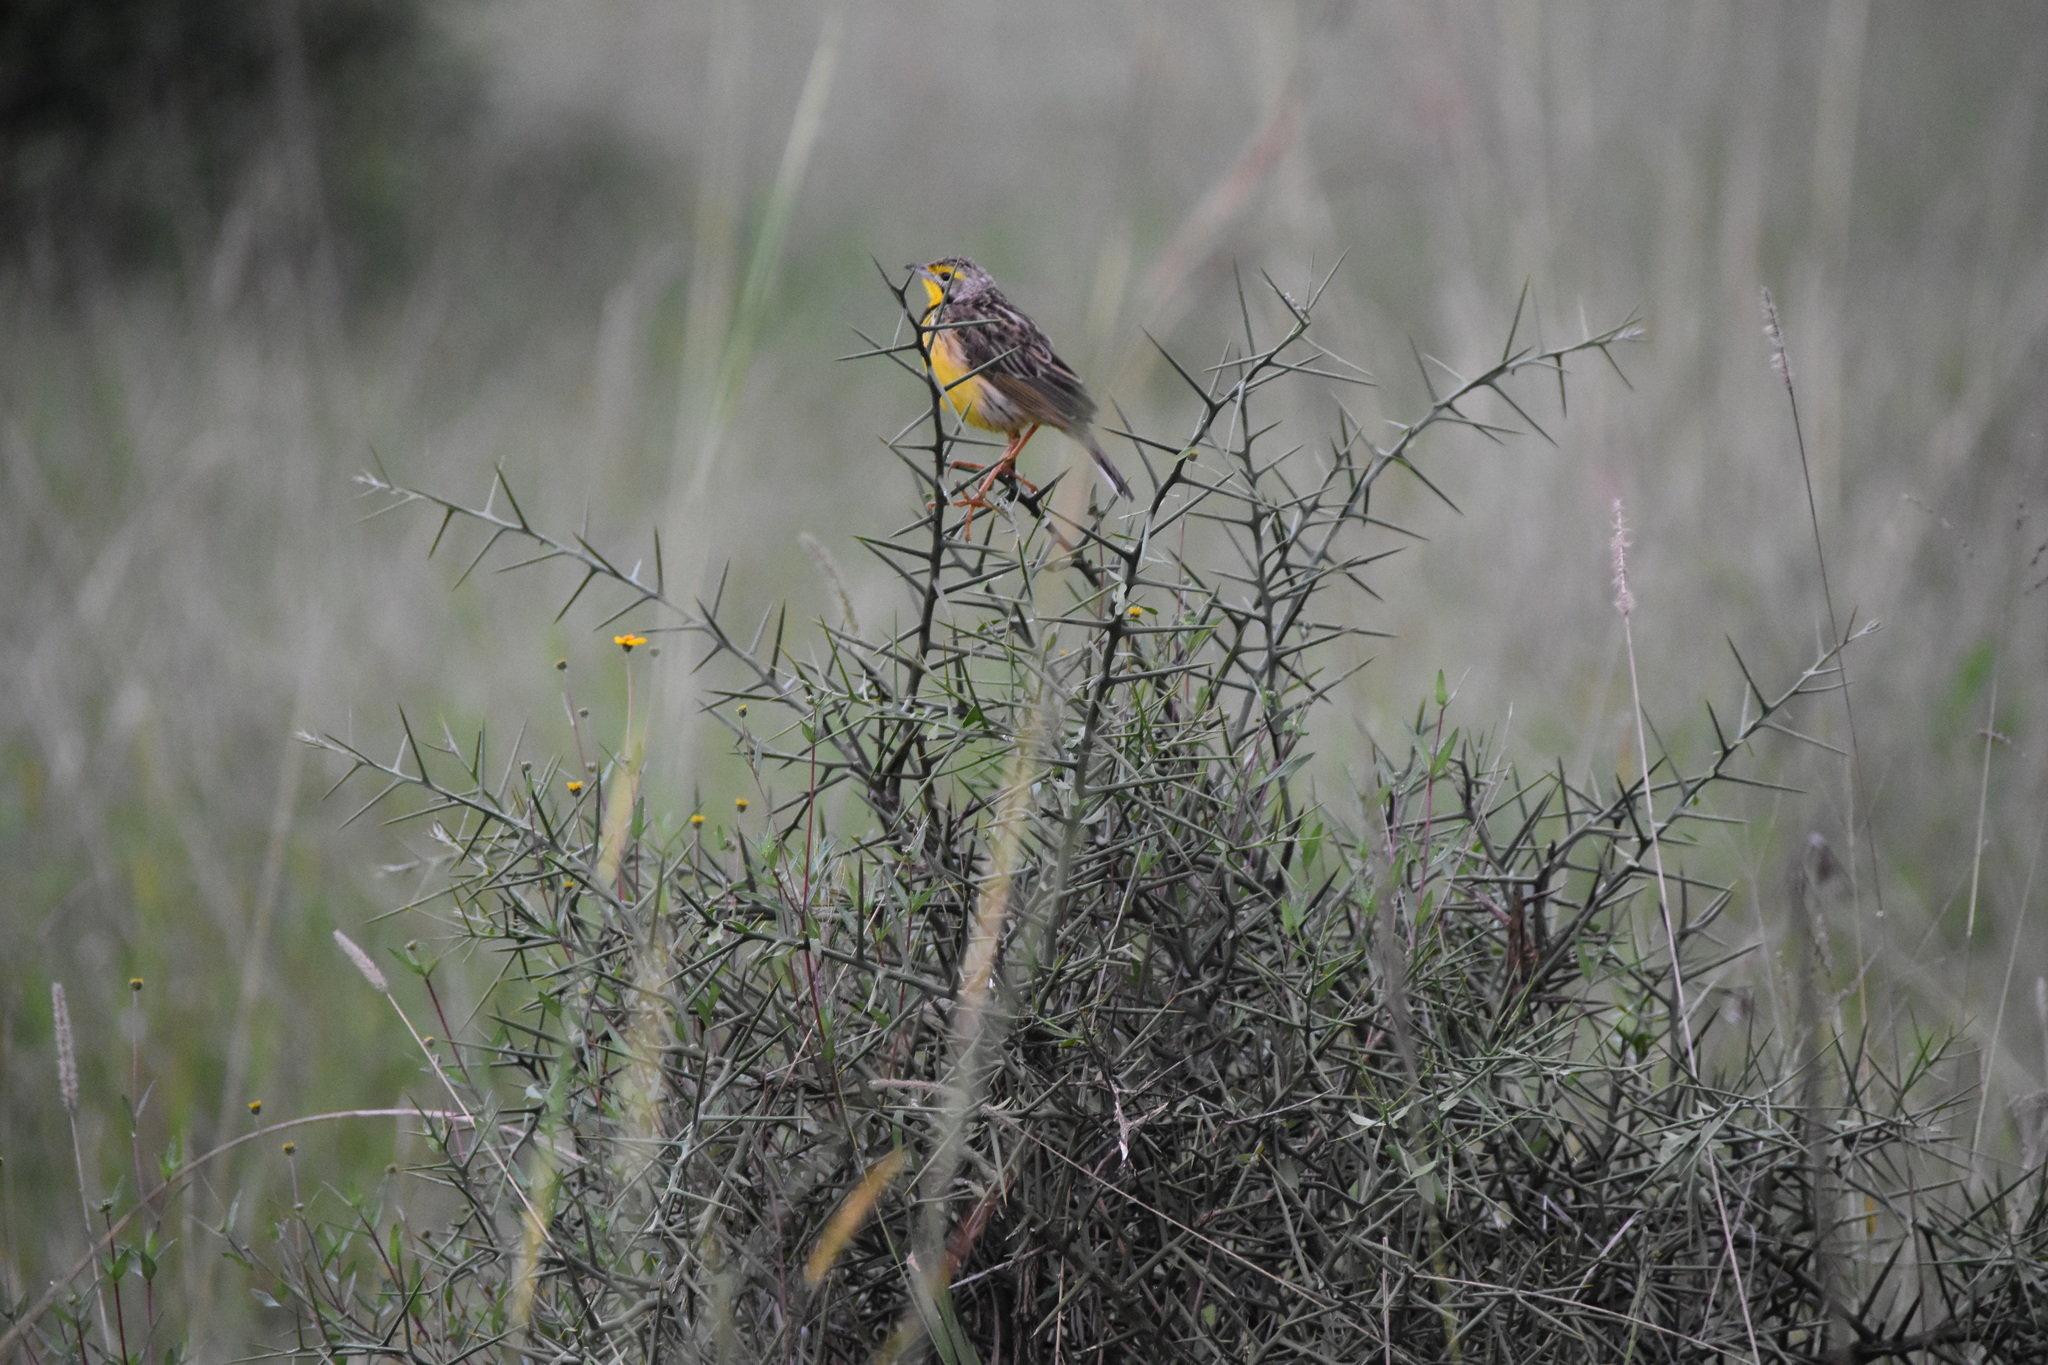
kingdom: Animalia
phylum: Chordata
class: Aves
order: Passeriformes
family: Motacillidae
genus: Macronyx
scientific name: Macronyx aurantiigula
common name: Pangani longclaw
